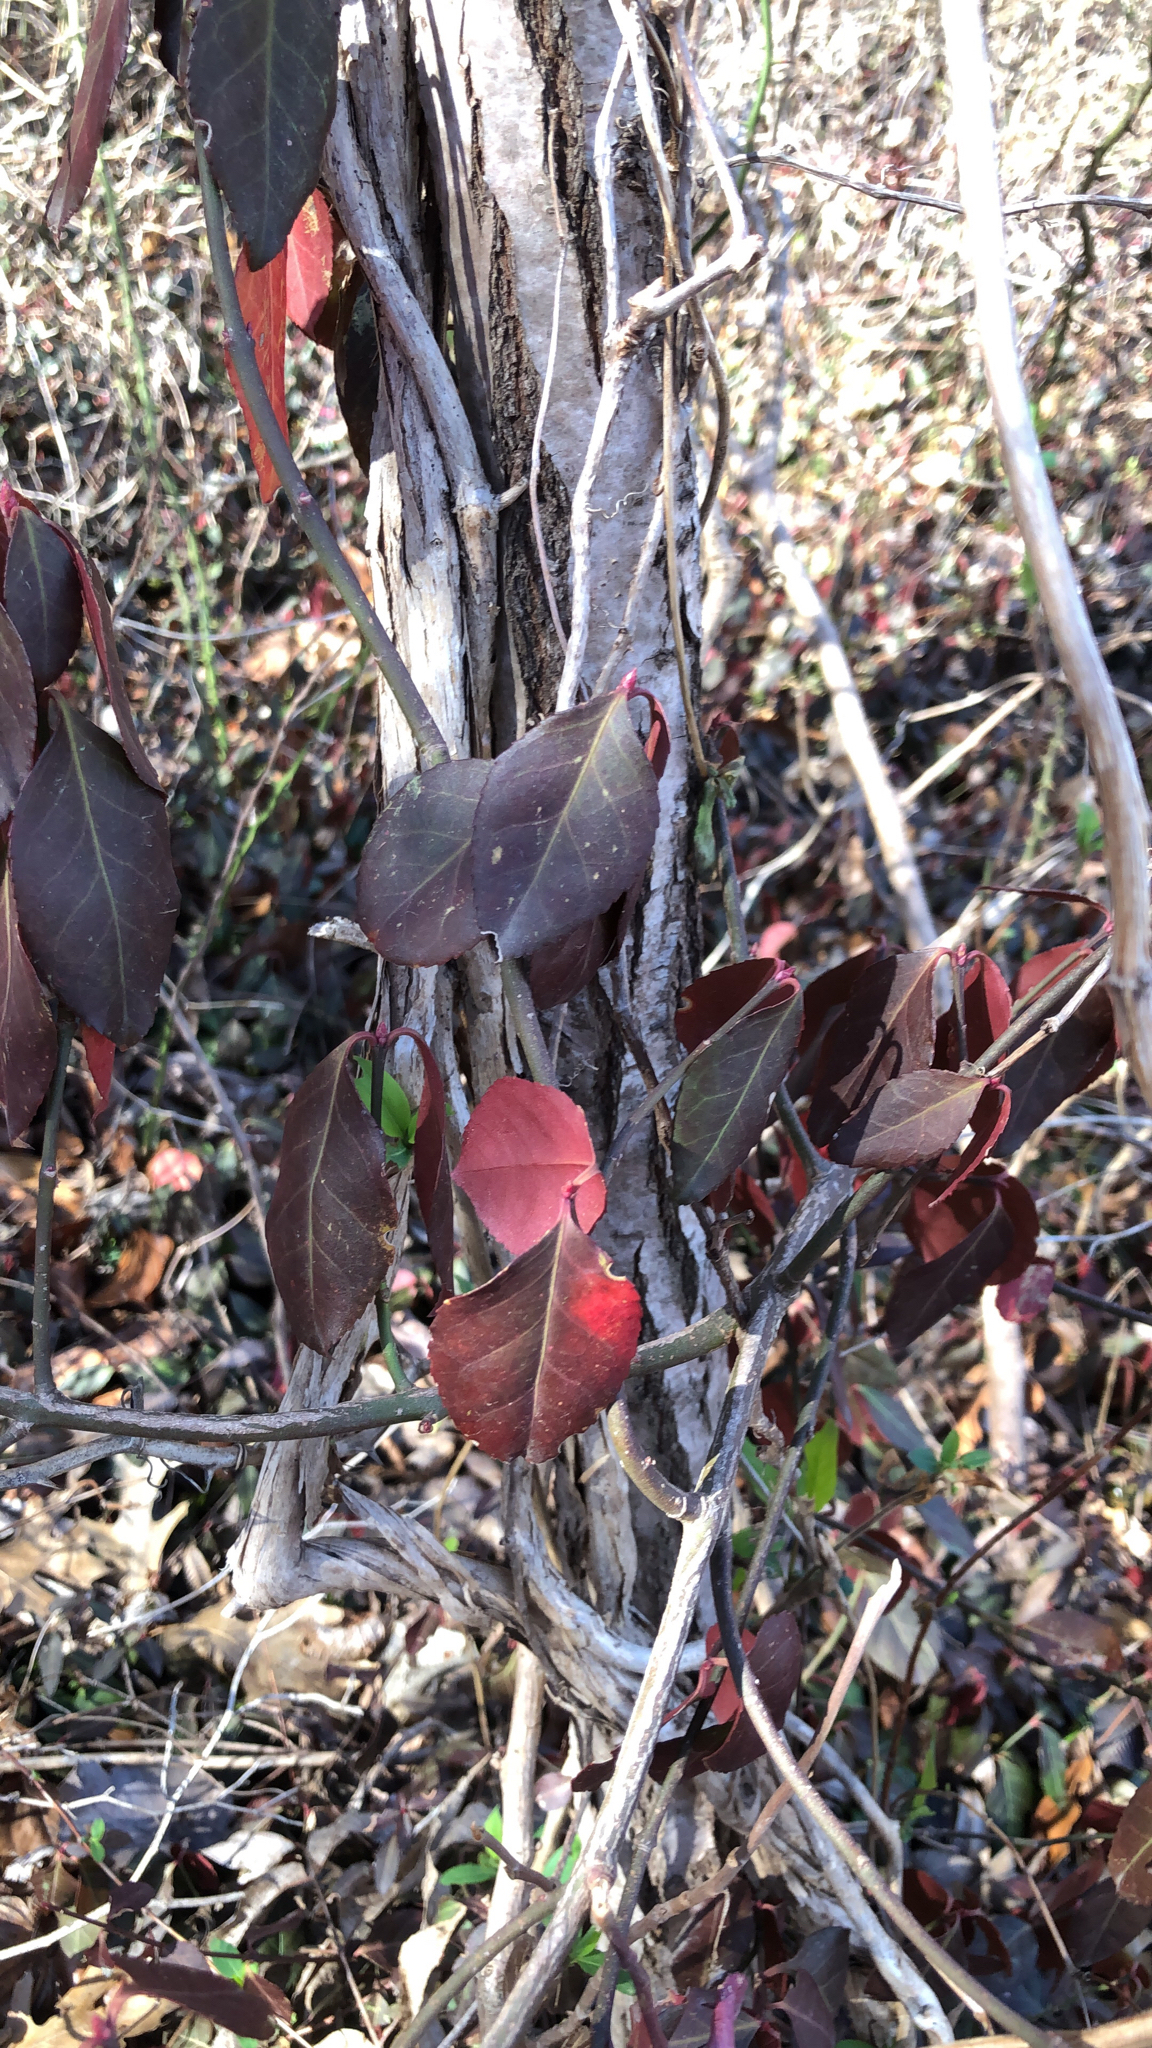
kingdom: Plantae
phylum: Tracheophyta
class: Magnoliopsida
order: Celastrales
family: Celastraceae
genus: Euonymus
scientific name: Euonymus fortunei
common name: Climbing euonymus
